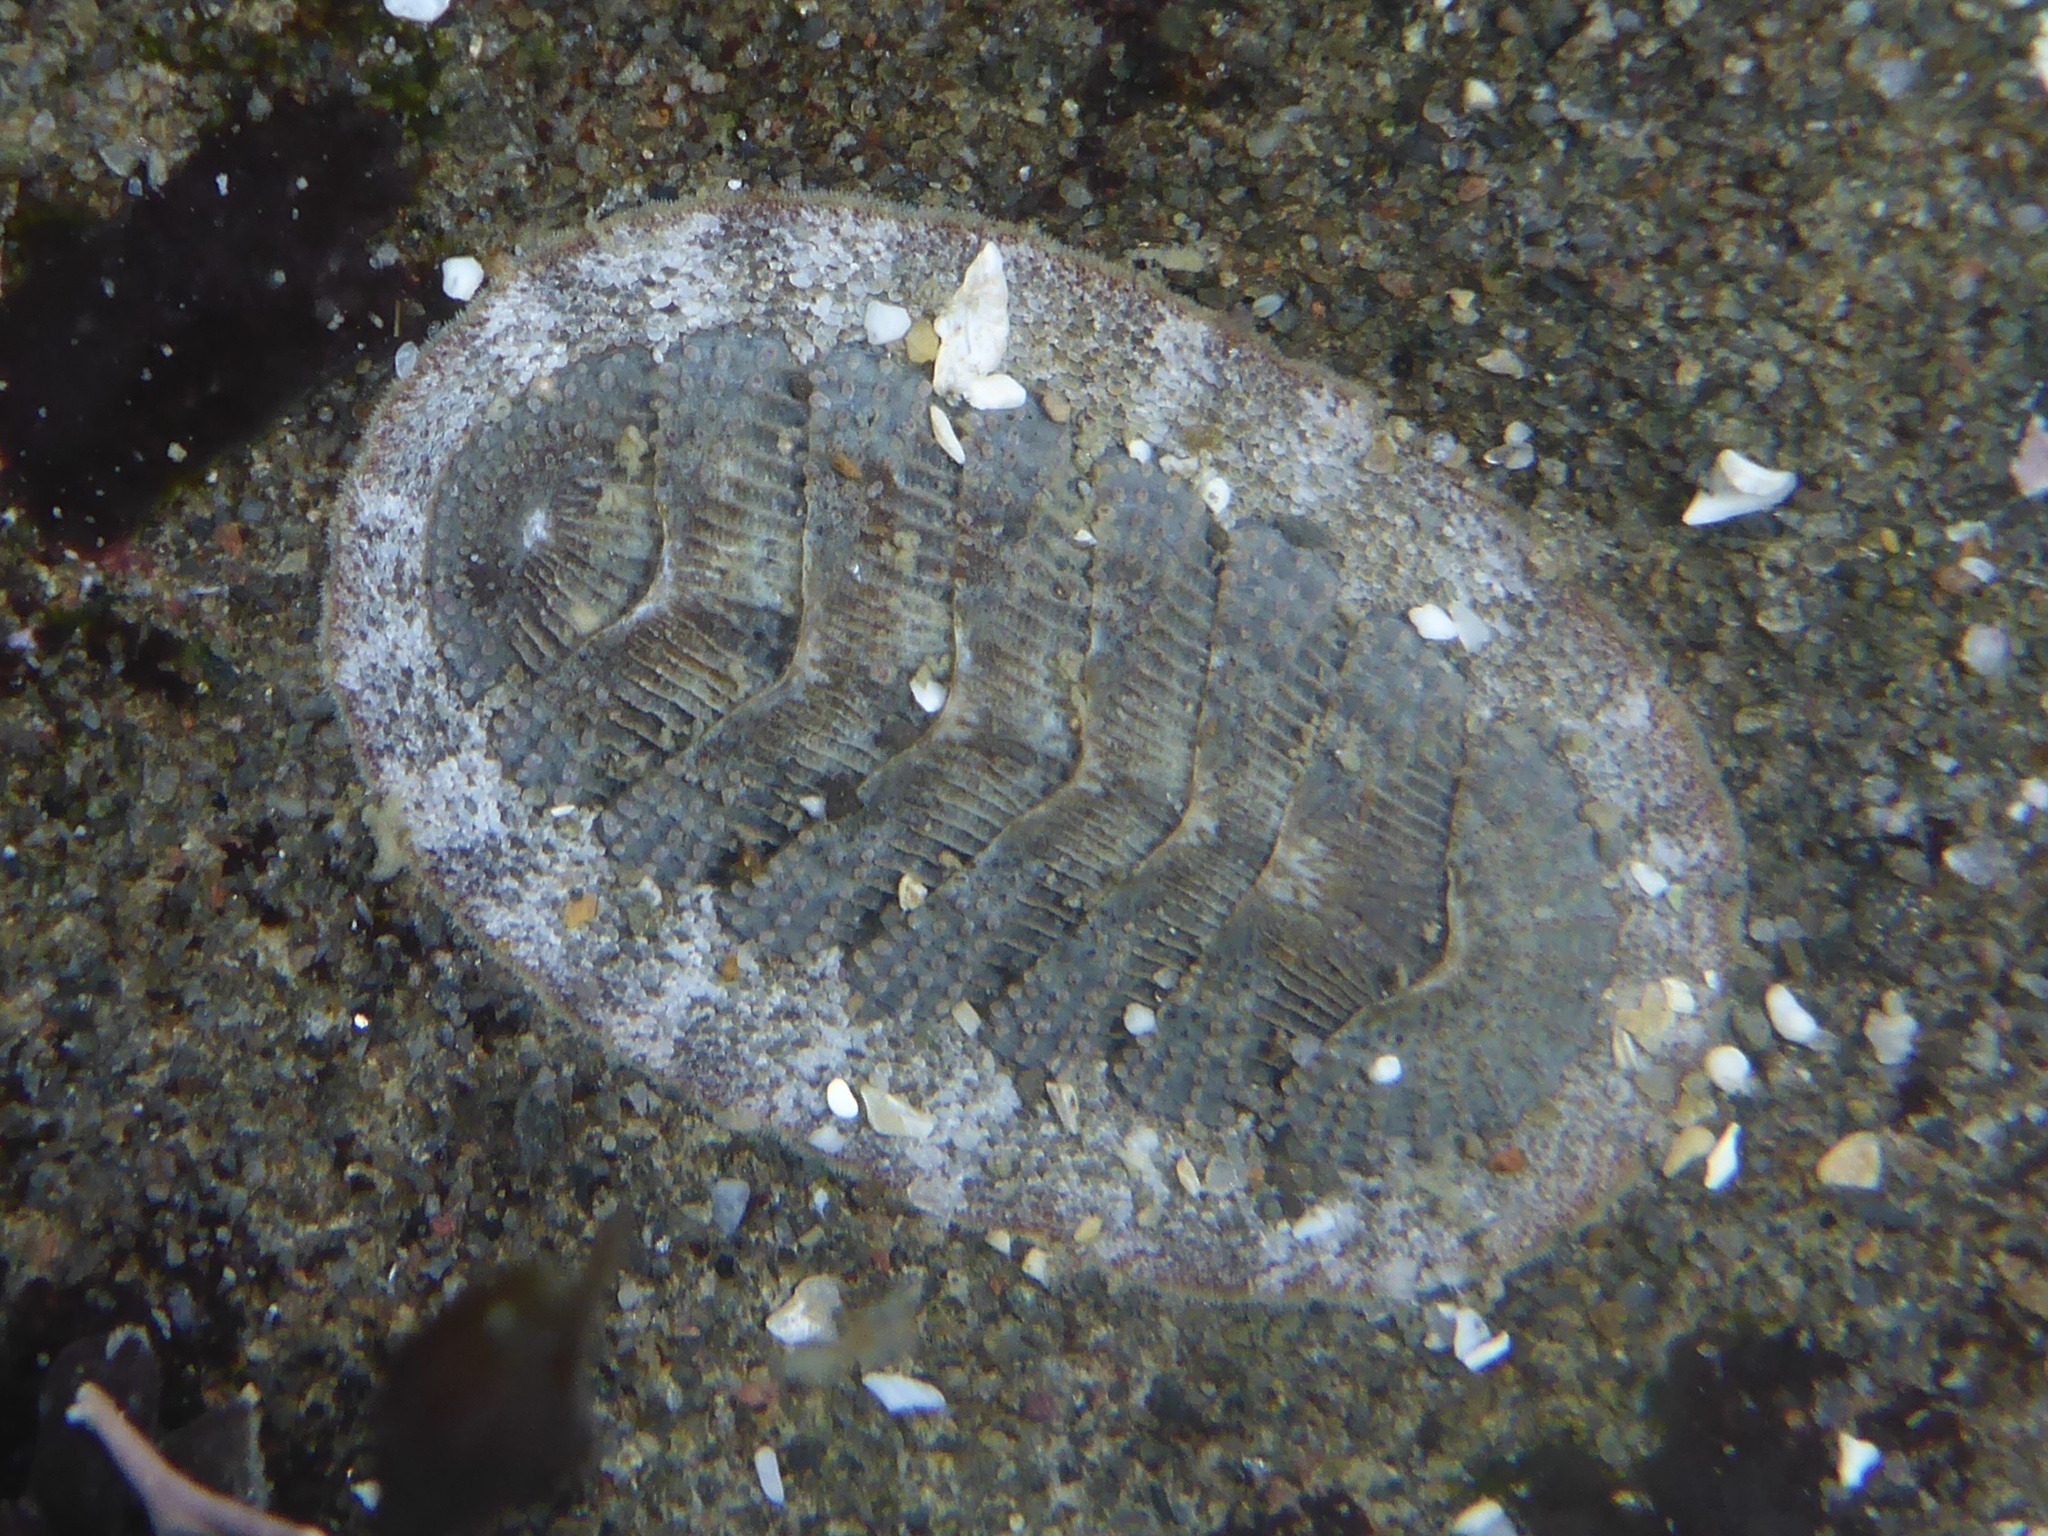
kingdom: Animalia
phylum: Mollusca
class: Polyplacophora
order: Chitonida
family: Ischnochitonidae
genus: Lepidozona
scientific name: Lepidozona cooperi
